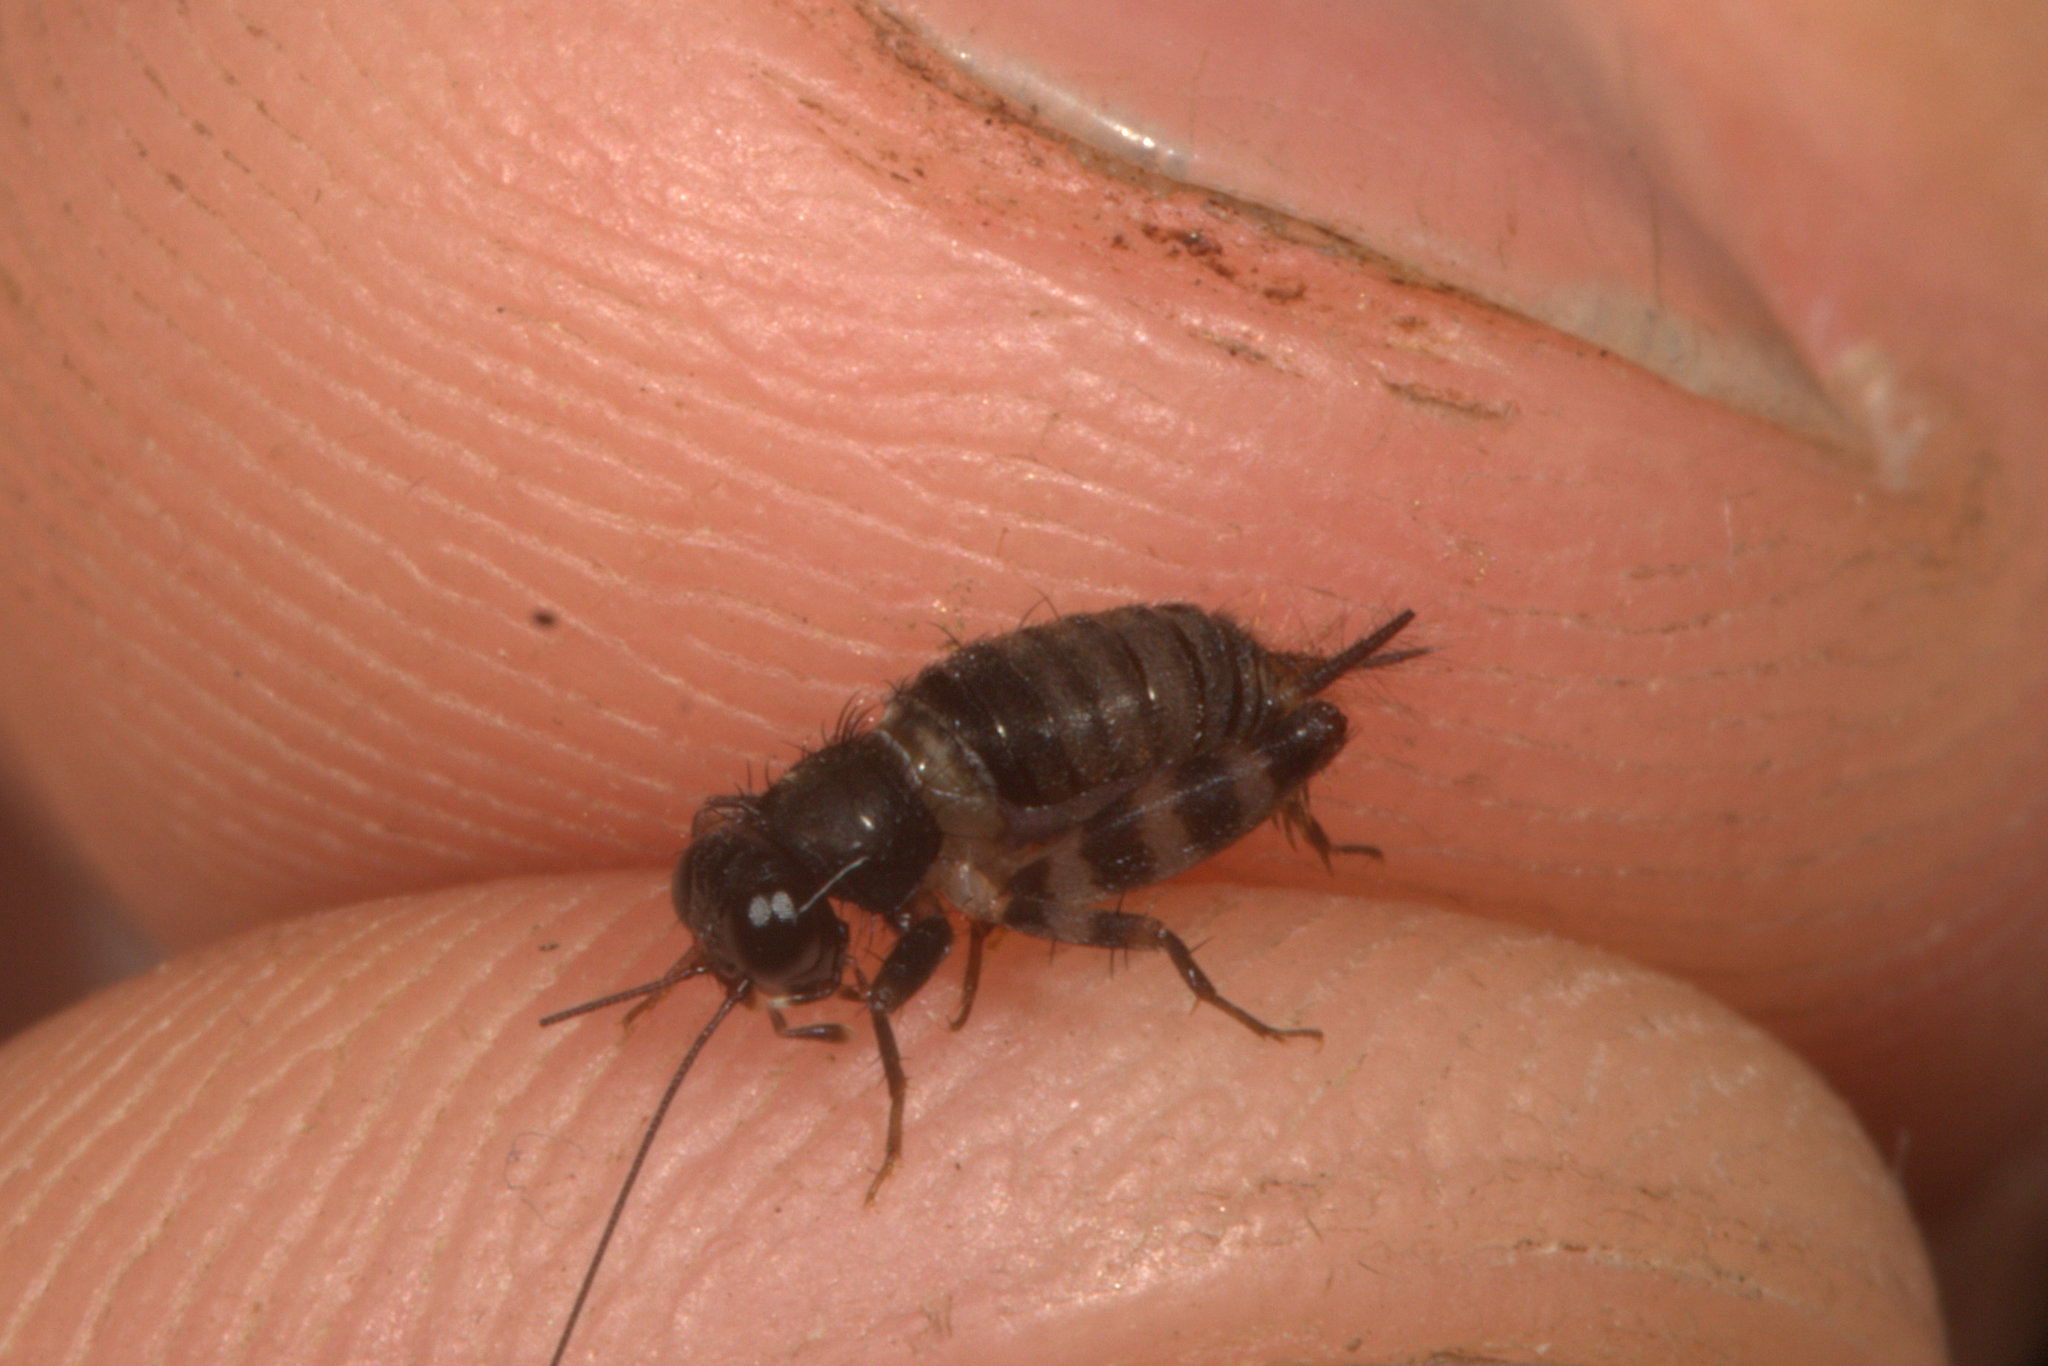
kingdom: Animalia
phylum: Arthropoda
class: Insecta
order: Orthoptera
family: Trigonidiidae
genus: Scottiola
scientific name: Scottiola salticiformis
